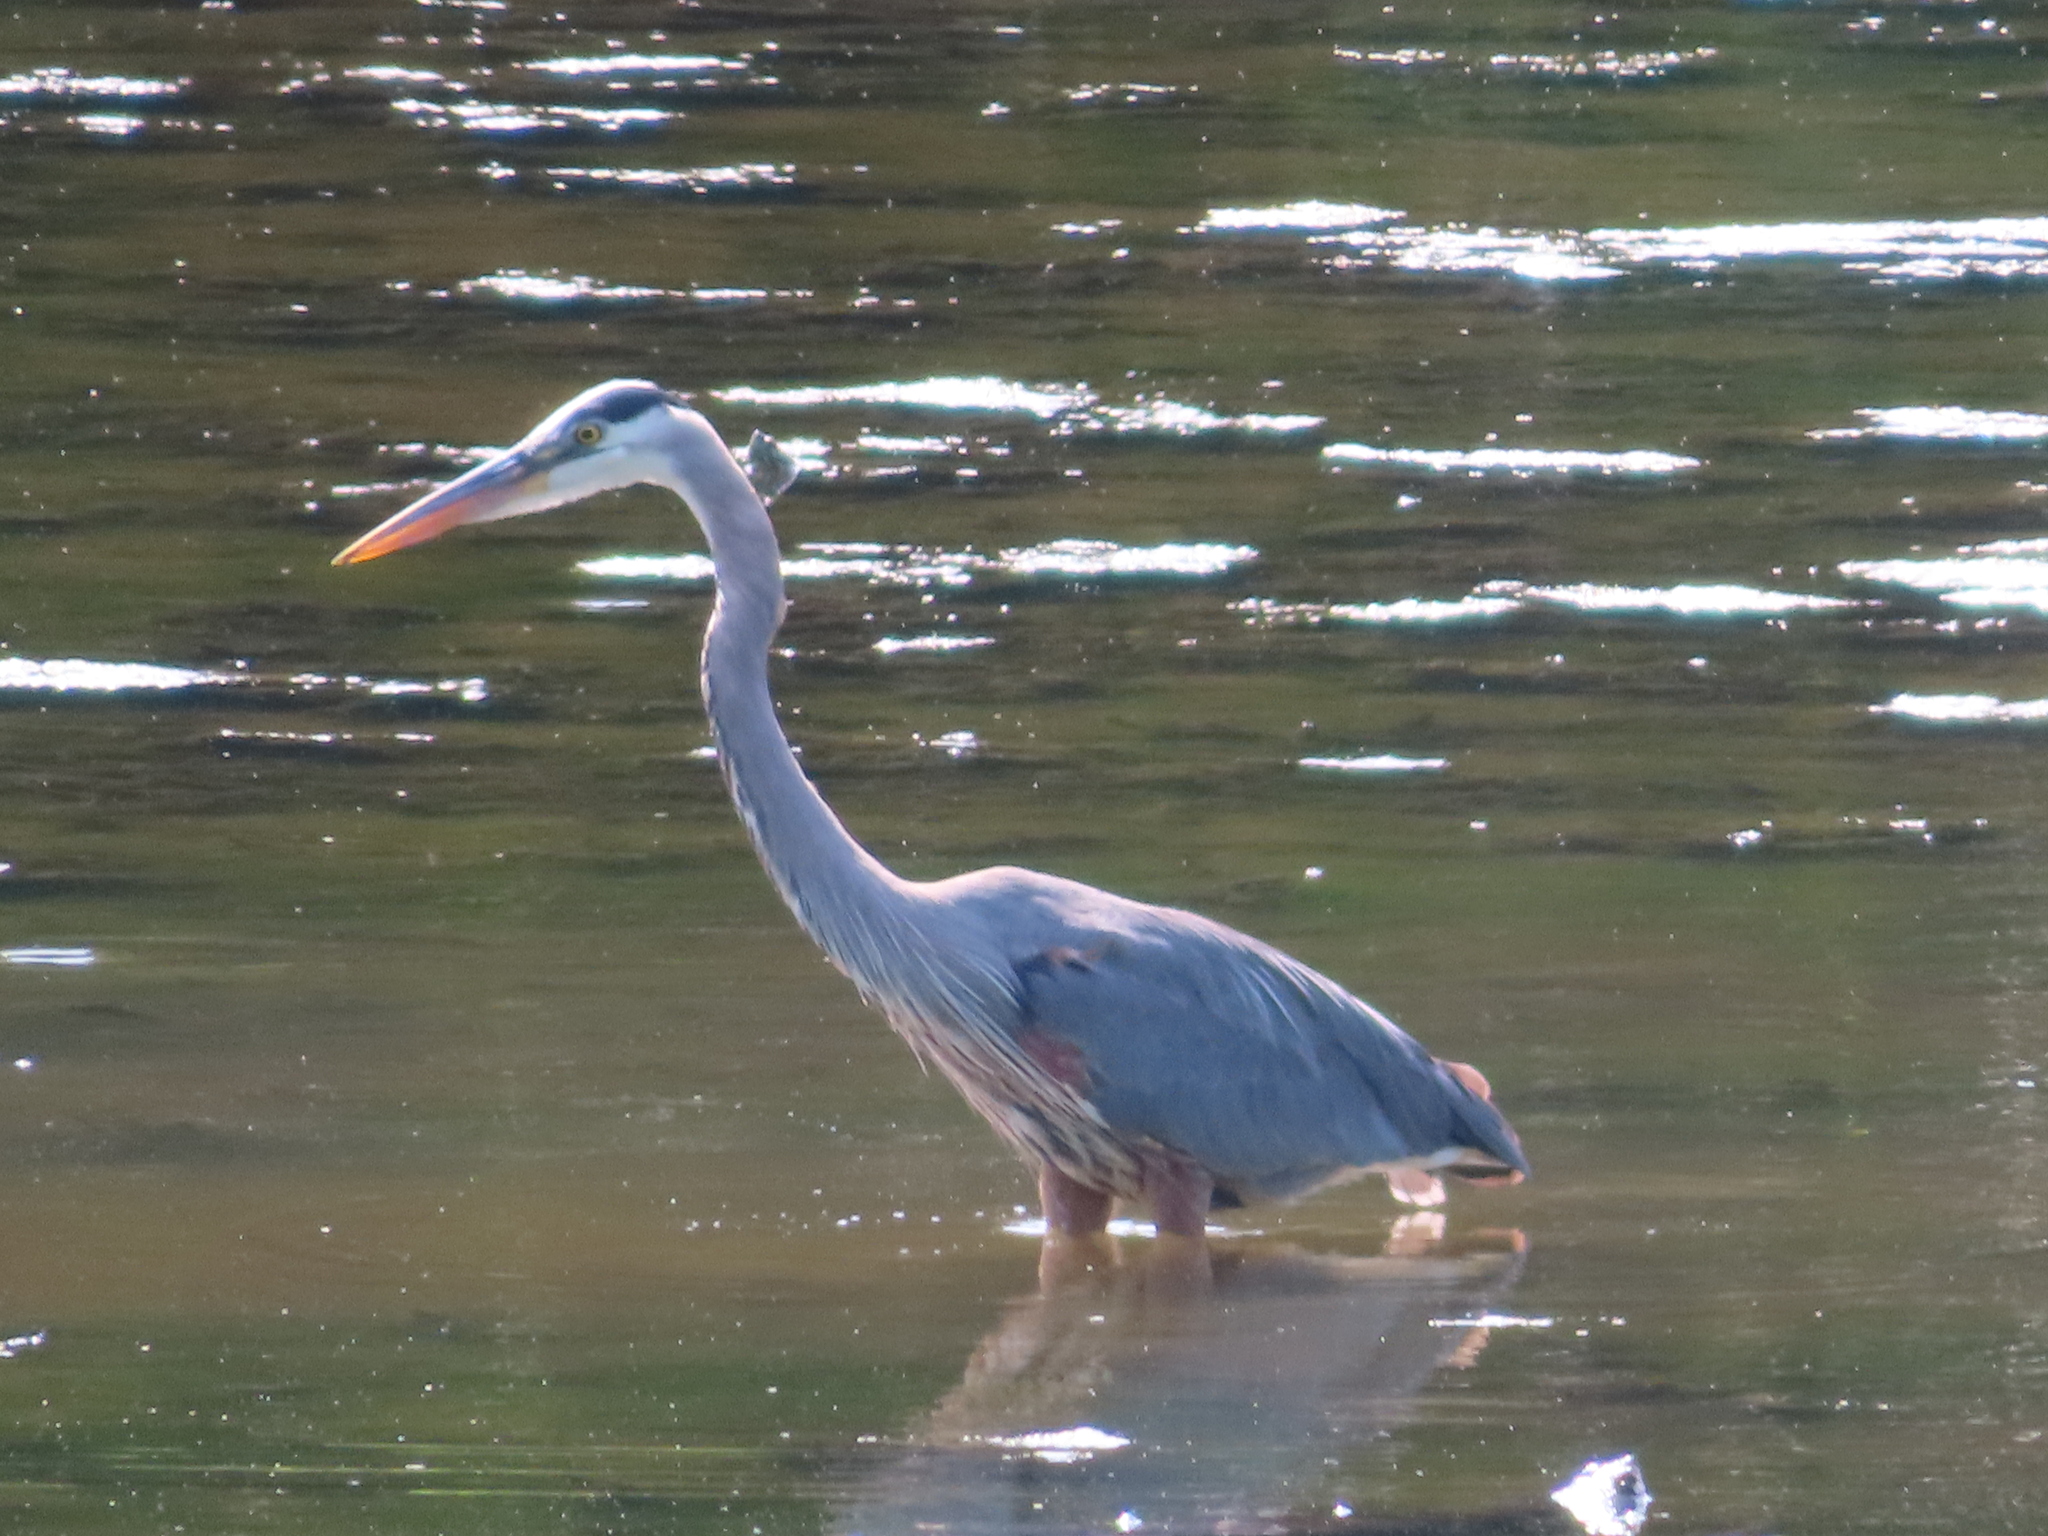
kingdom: Animalia
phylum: Chordata
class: Aves
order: Pelecaniformes
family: Ardeidae
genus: Ardea
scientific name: Ardea herodias
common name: Great blue heron
